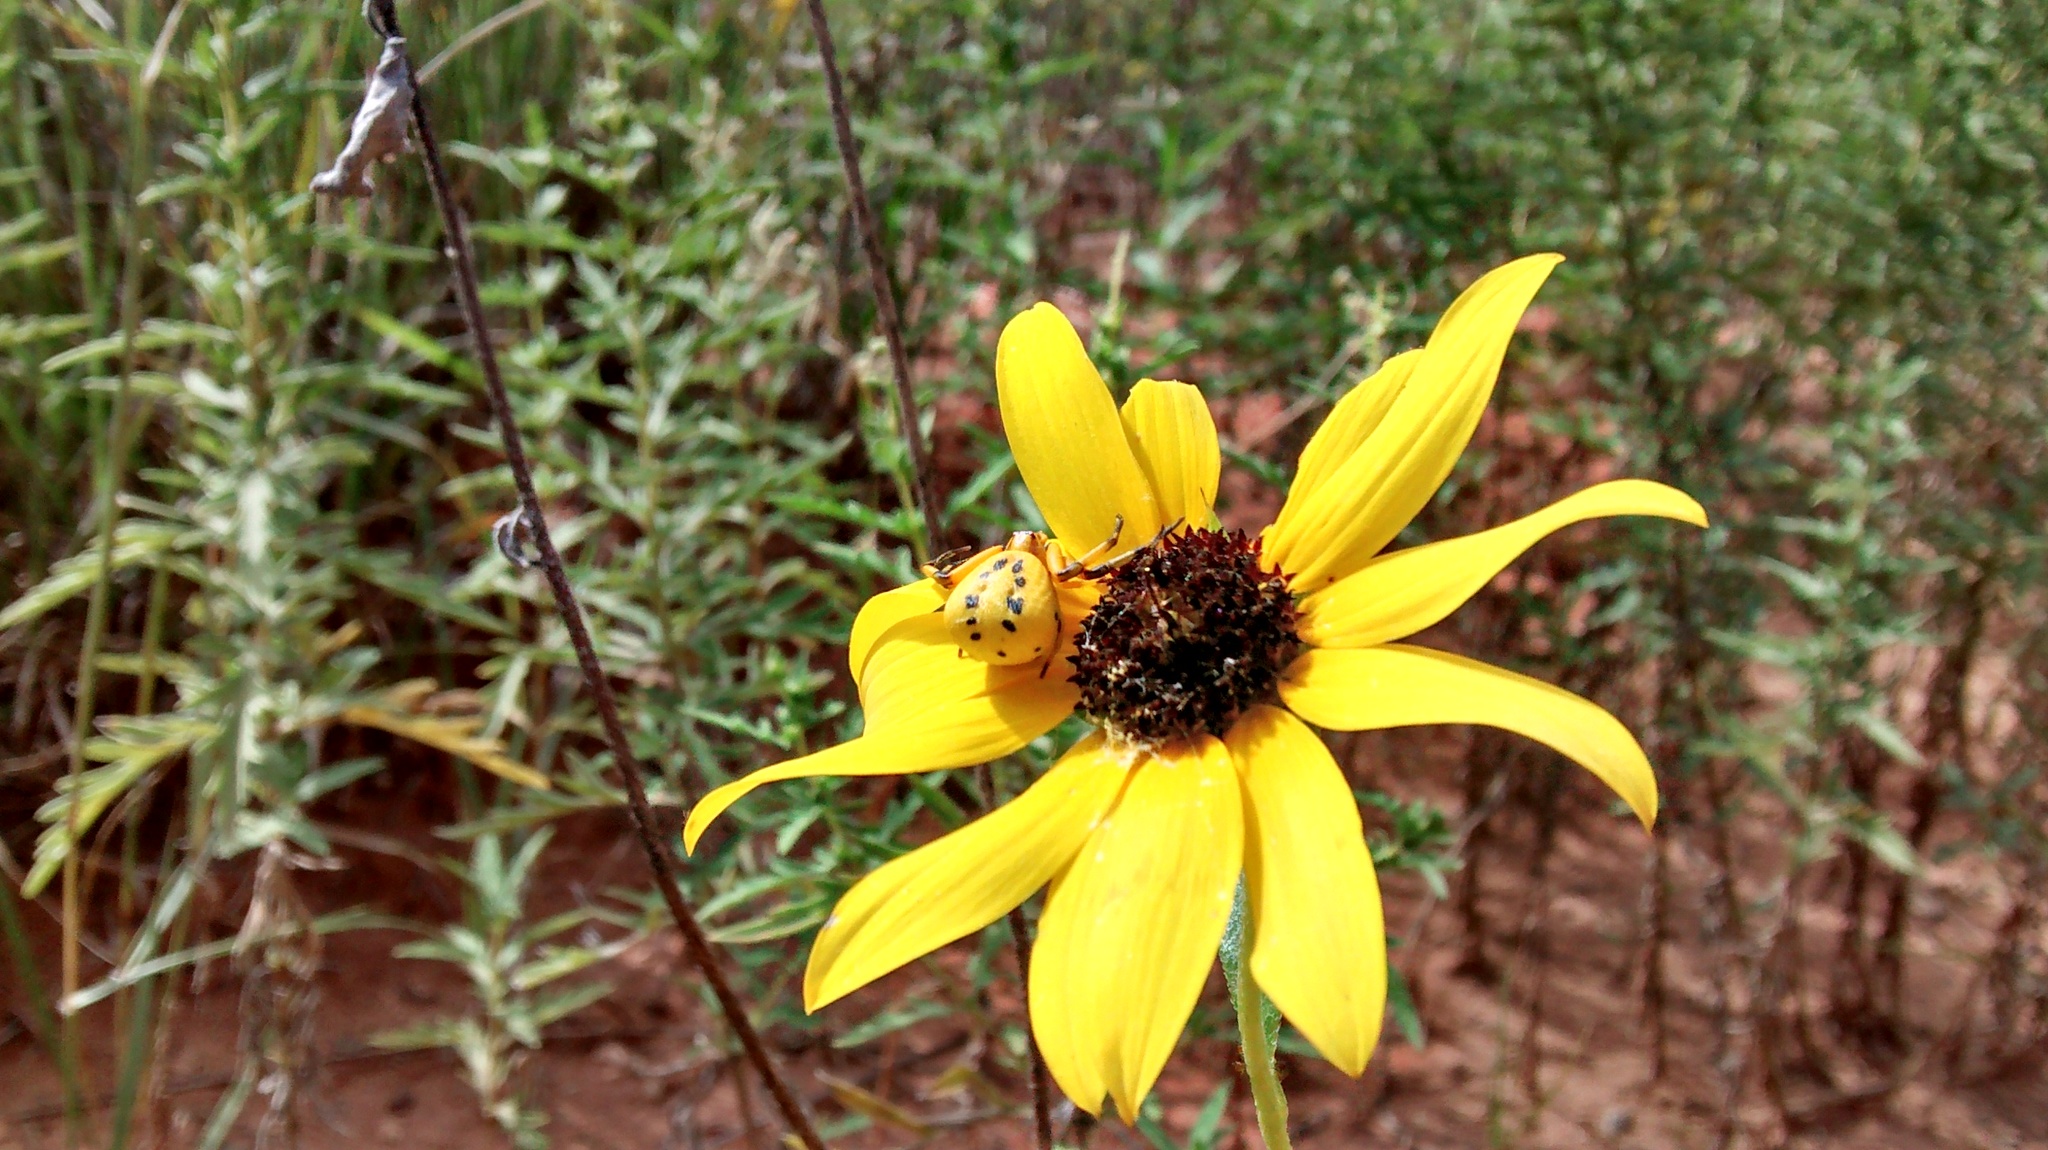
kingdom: Animalia
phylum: Arthropoda
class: Arachnida
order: Araneae
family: Thomisidae
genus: Misumenoides
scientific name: Misumenoides formosipes
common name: White-banded crab spider
